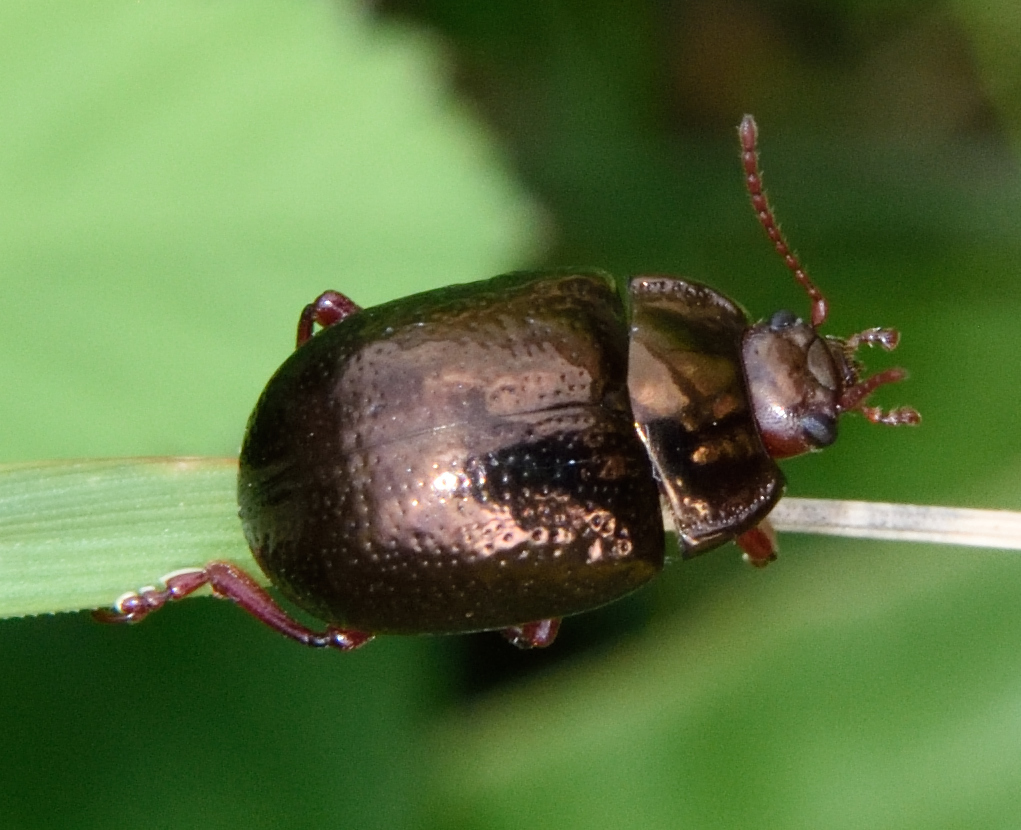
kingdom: Animalia
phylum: Arthropoda
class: Insecta
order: Coleoptera
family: Chrysomelidae
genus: Chrysolina
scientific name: Chrysolina bankii
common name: Leaf beetle
